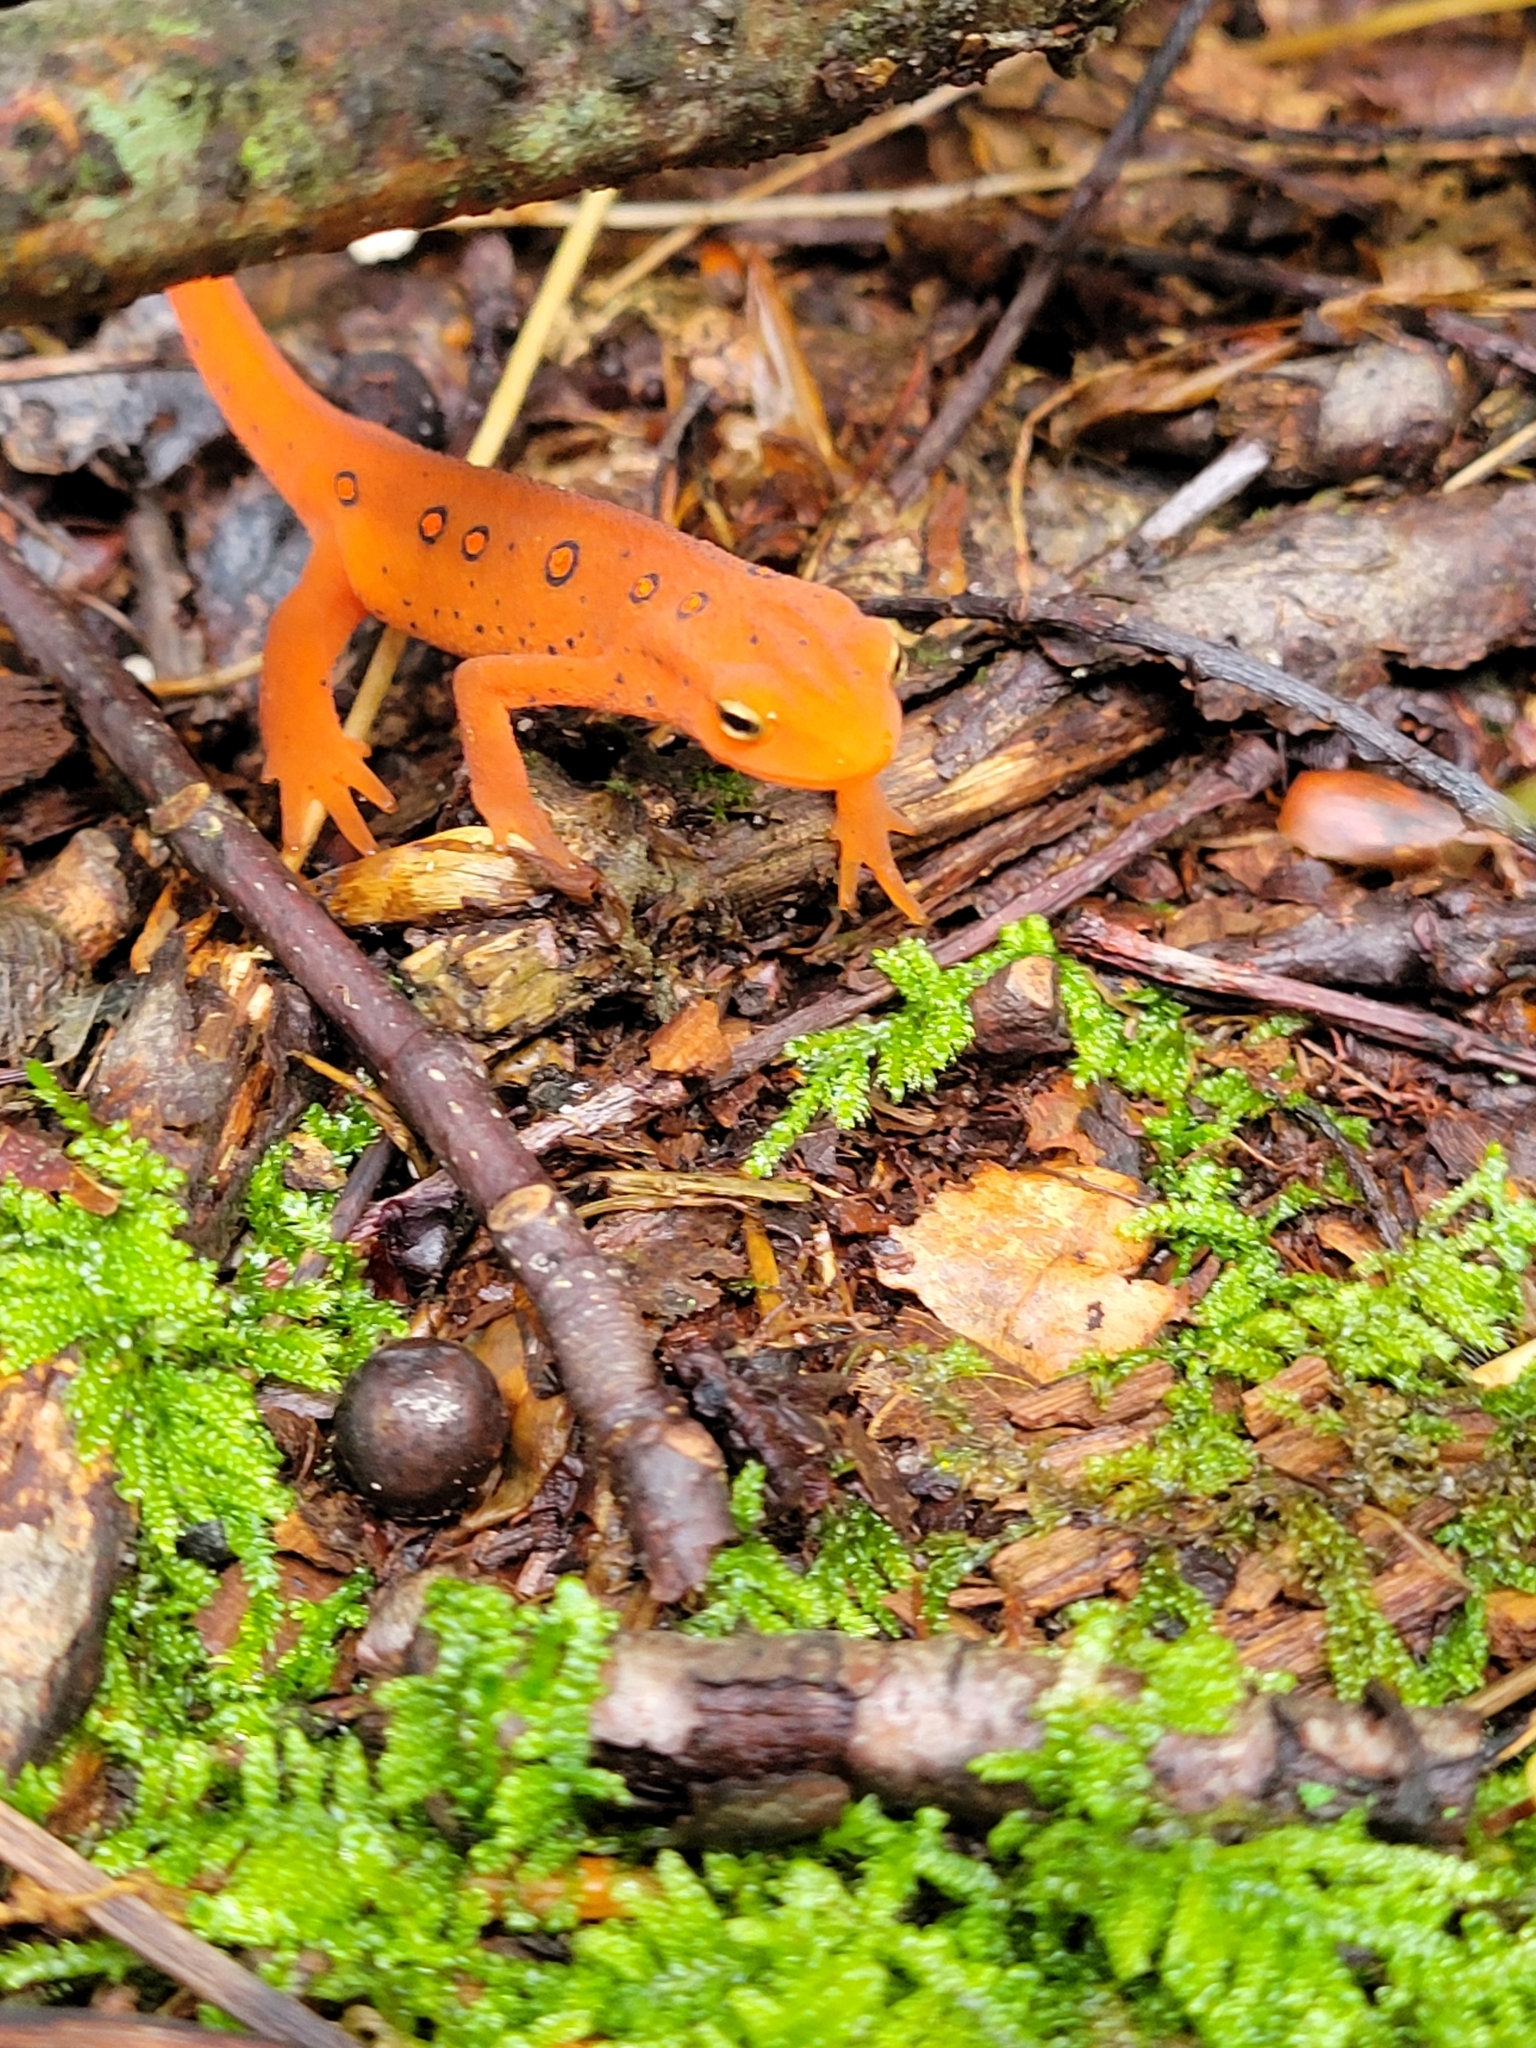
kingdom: Animalia
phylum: Chordata
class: Amphibia
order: Caudata
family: Salamandridae
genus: Notophthalmus
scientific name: Notophthalmus viridescens
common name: Eastern newt
